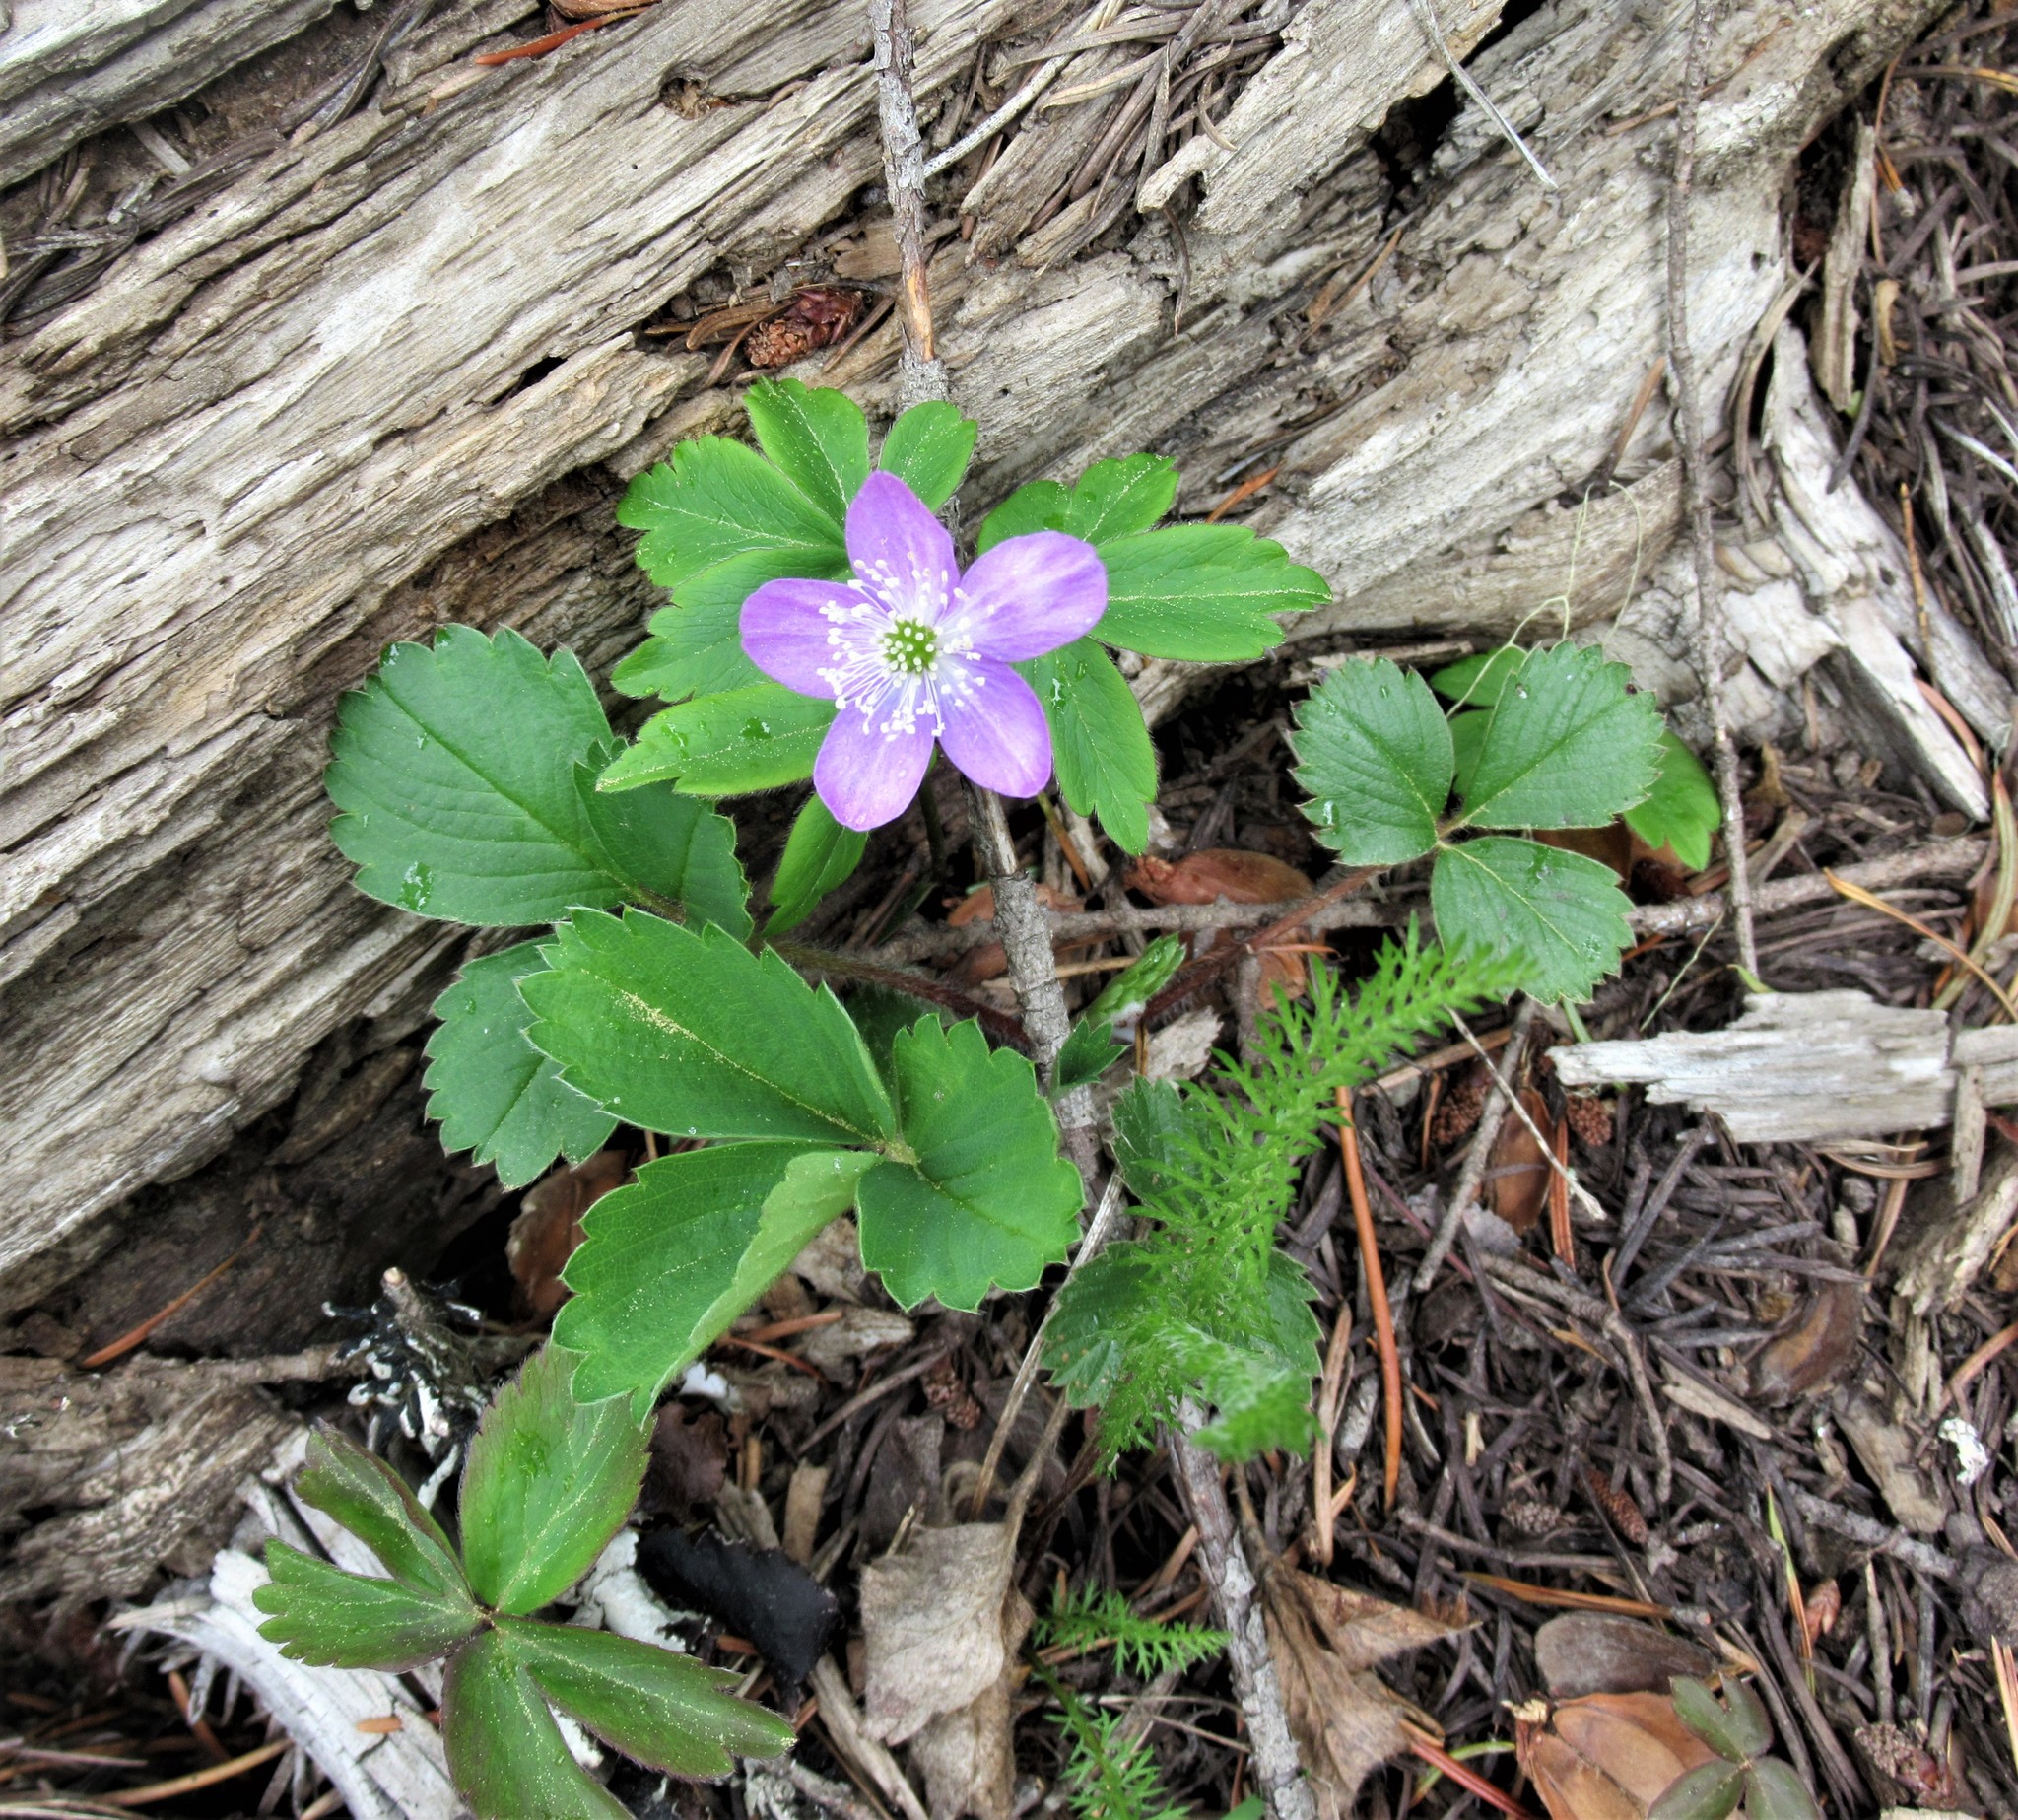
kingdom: Plantae
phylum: Tracheophyta
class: Magnoliopsida
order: Ranunculales
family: Ranunculaceae
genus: Anemone
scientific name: Anemone oregana
